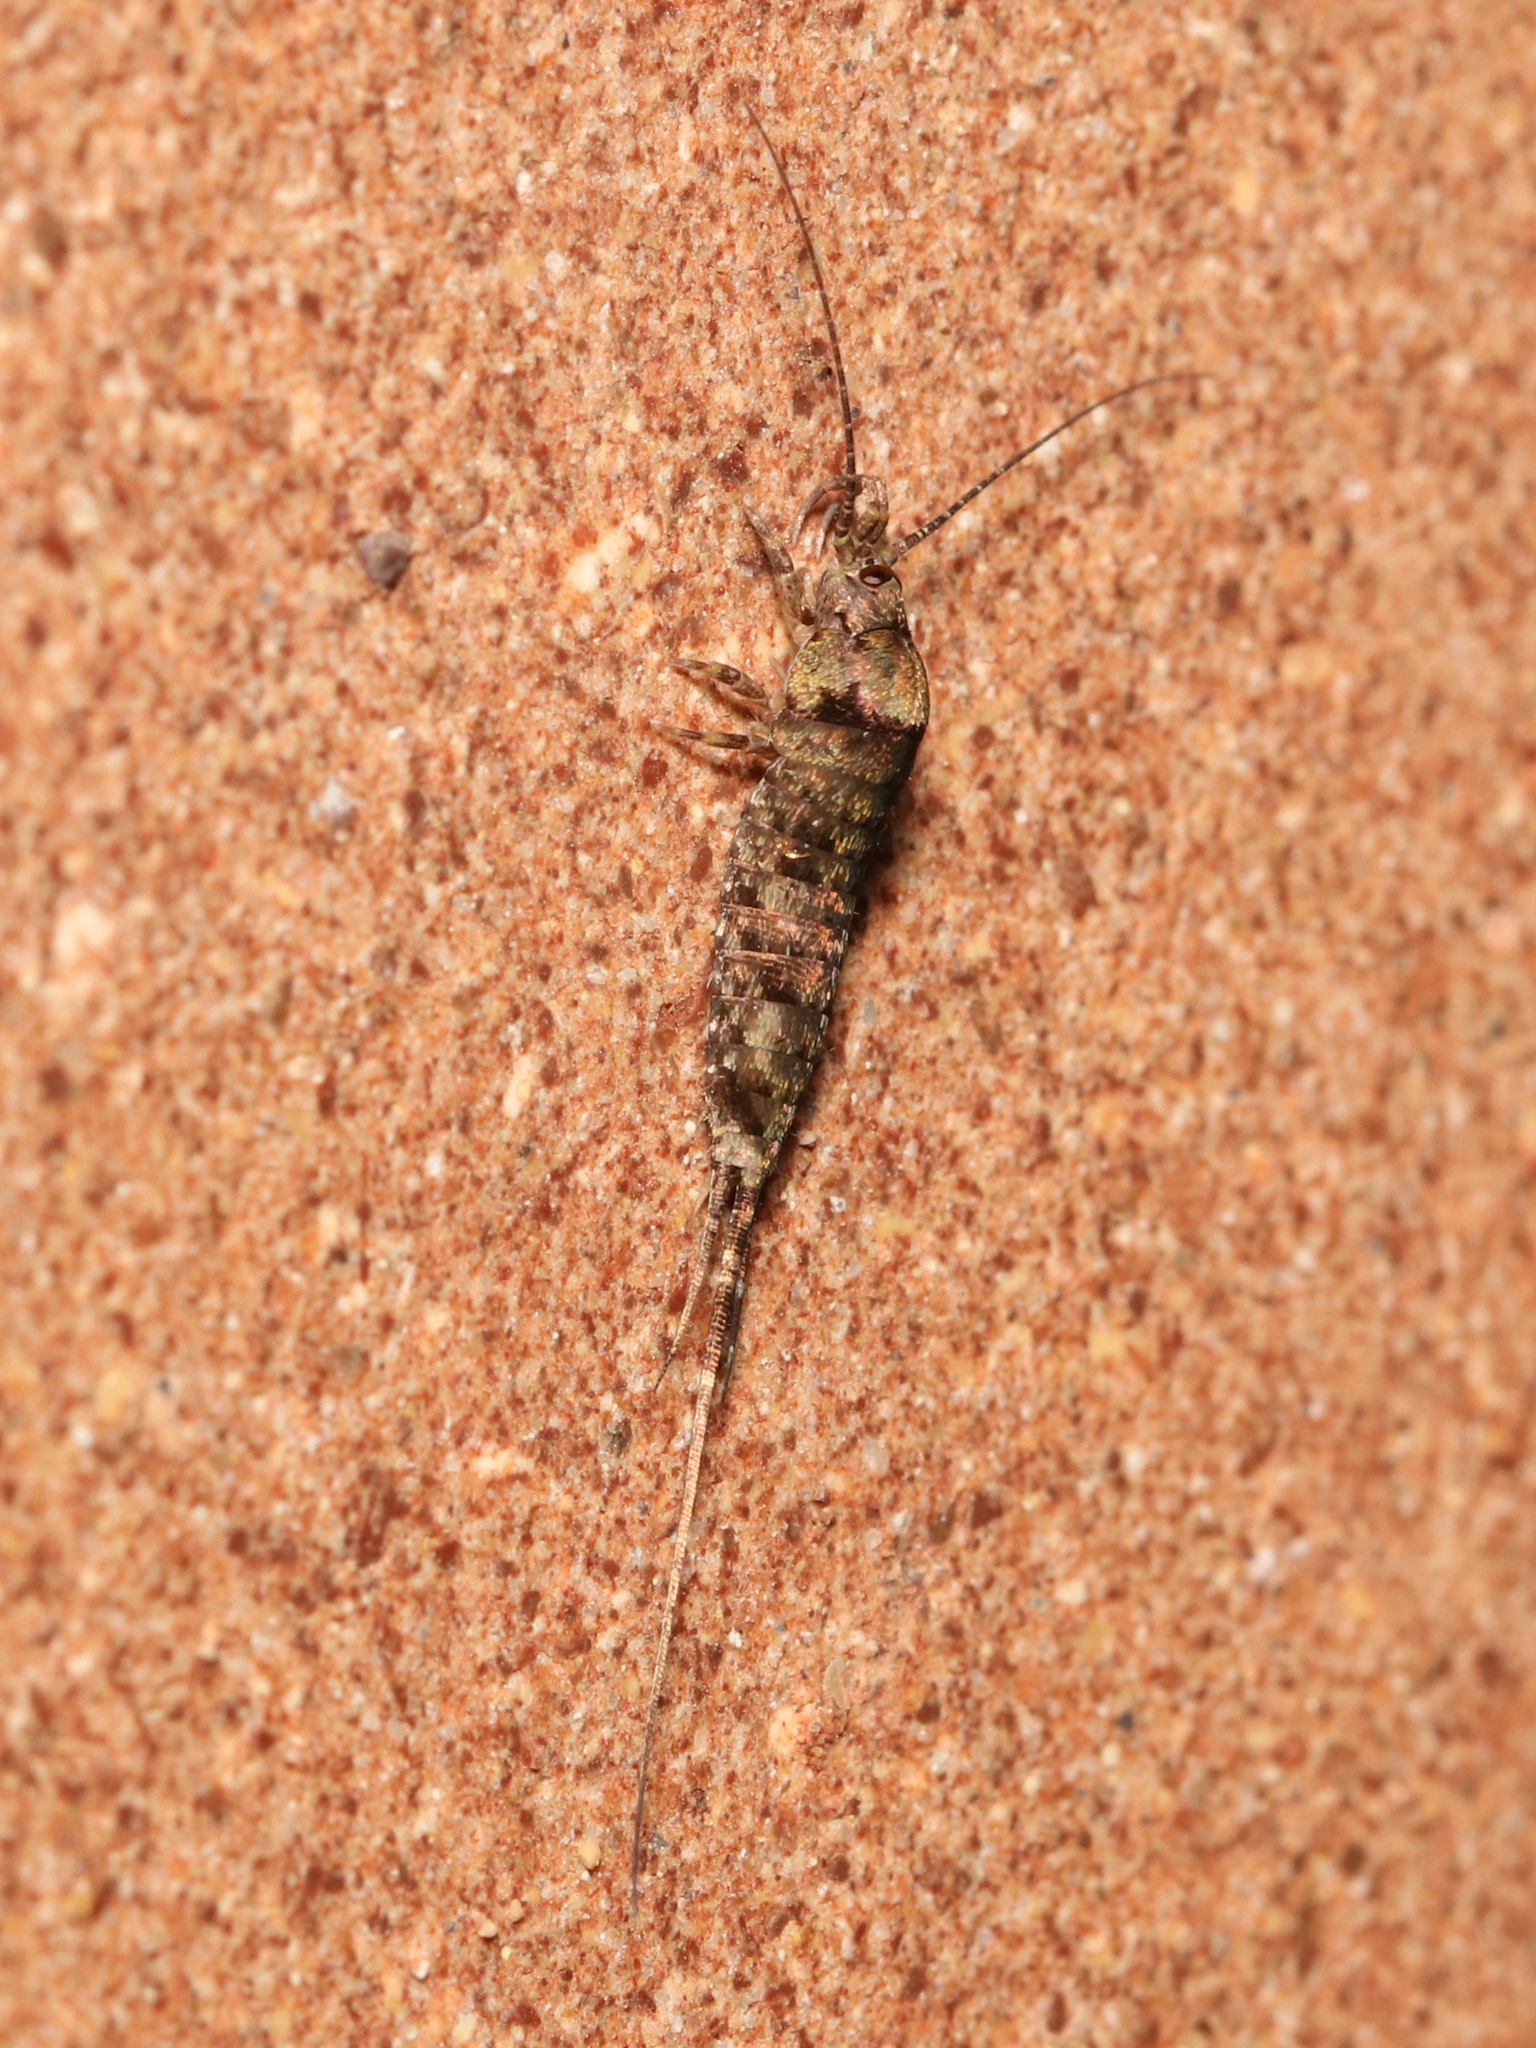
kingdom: Animalia
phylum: Arthropoda
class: Insecta
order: Archaeognatha
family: Machilidae
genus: Trigoniophthalmus
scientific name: Trigoniophthalmus alternatus
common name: Jumping bristletail
